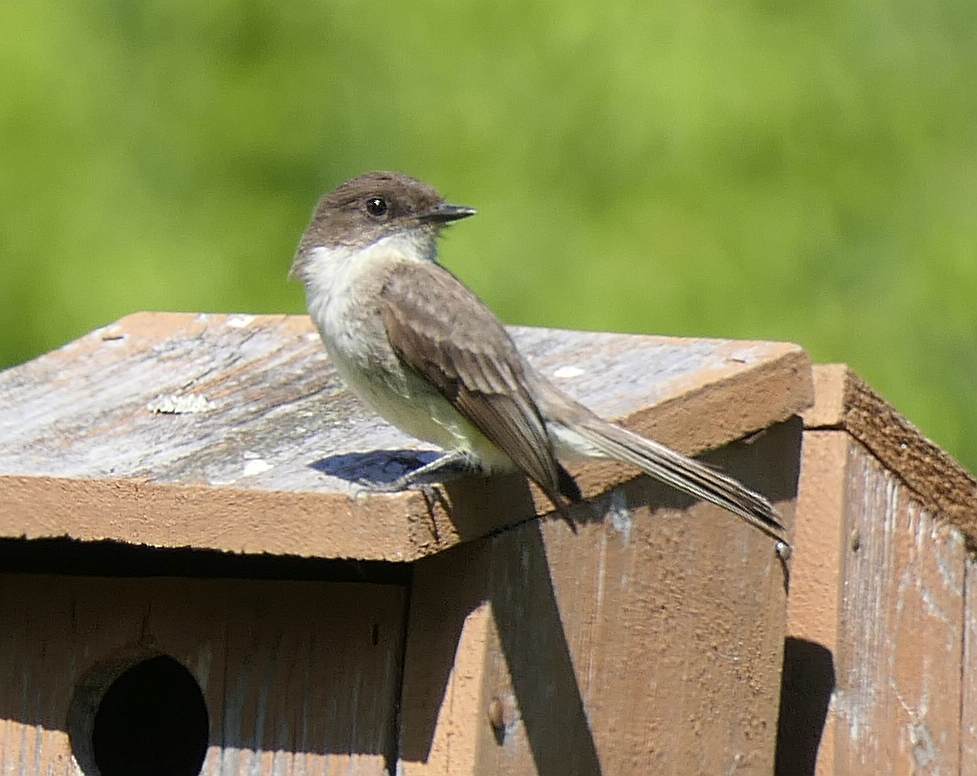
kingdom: Animalia
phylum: Chordata
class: Aves
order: Passeriformes
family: Tyrannidae
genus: Sayornis
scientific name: Sayornis phoebe
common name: Eastern phoebe
